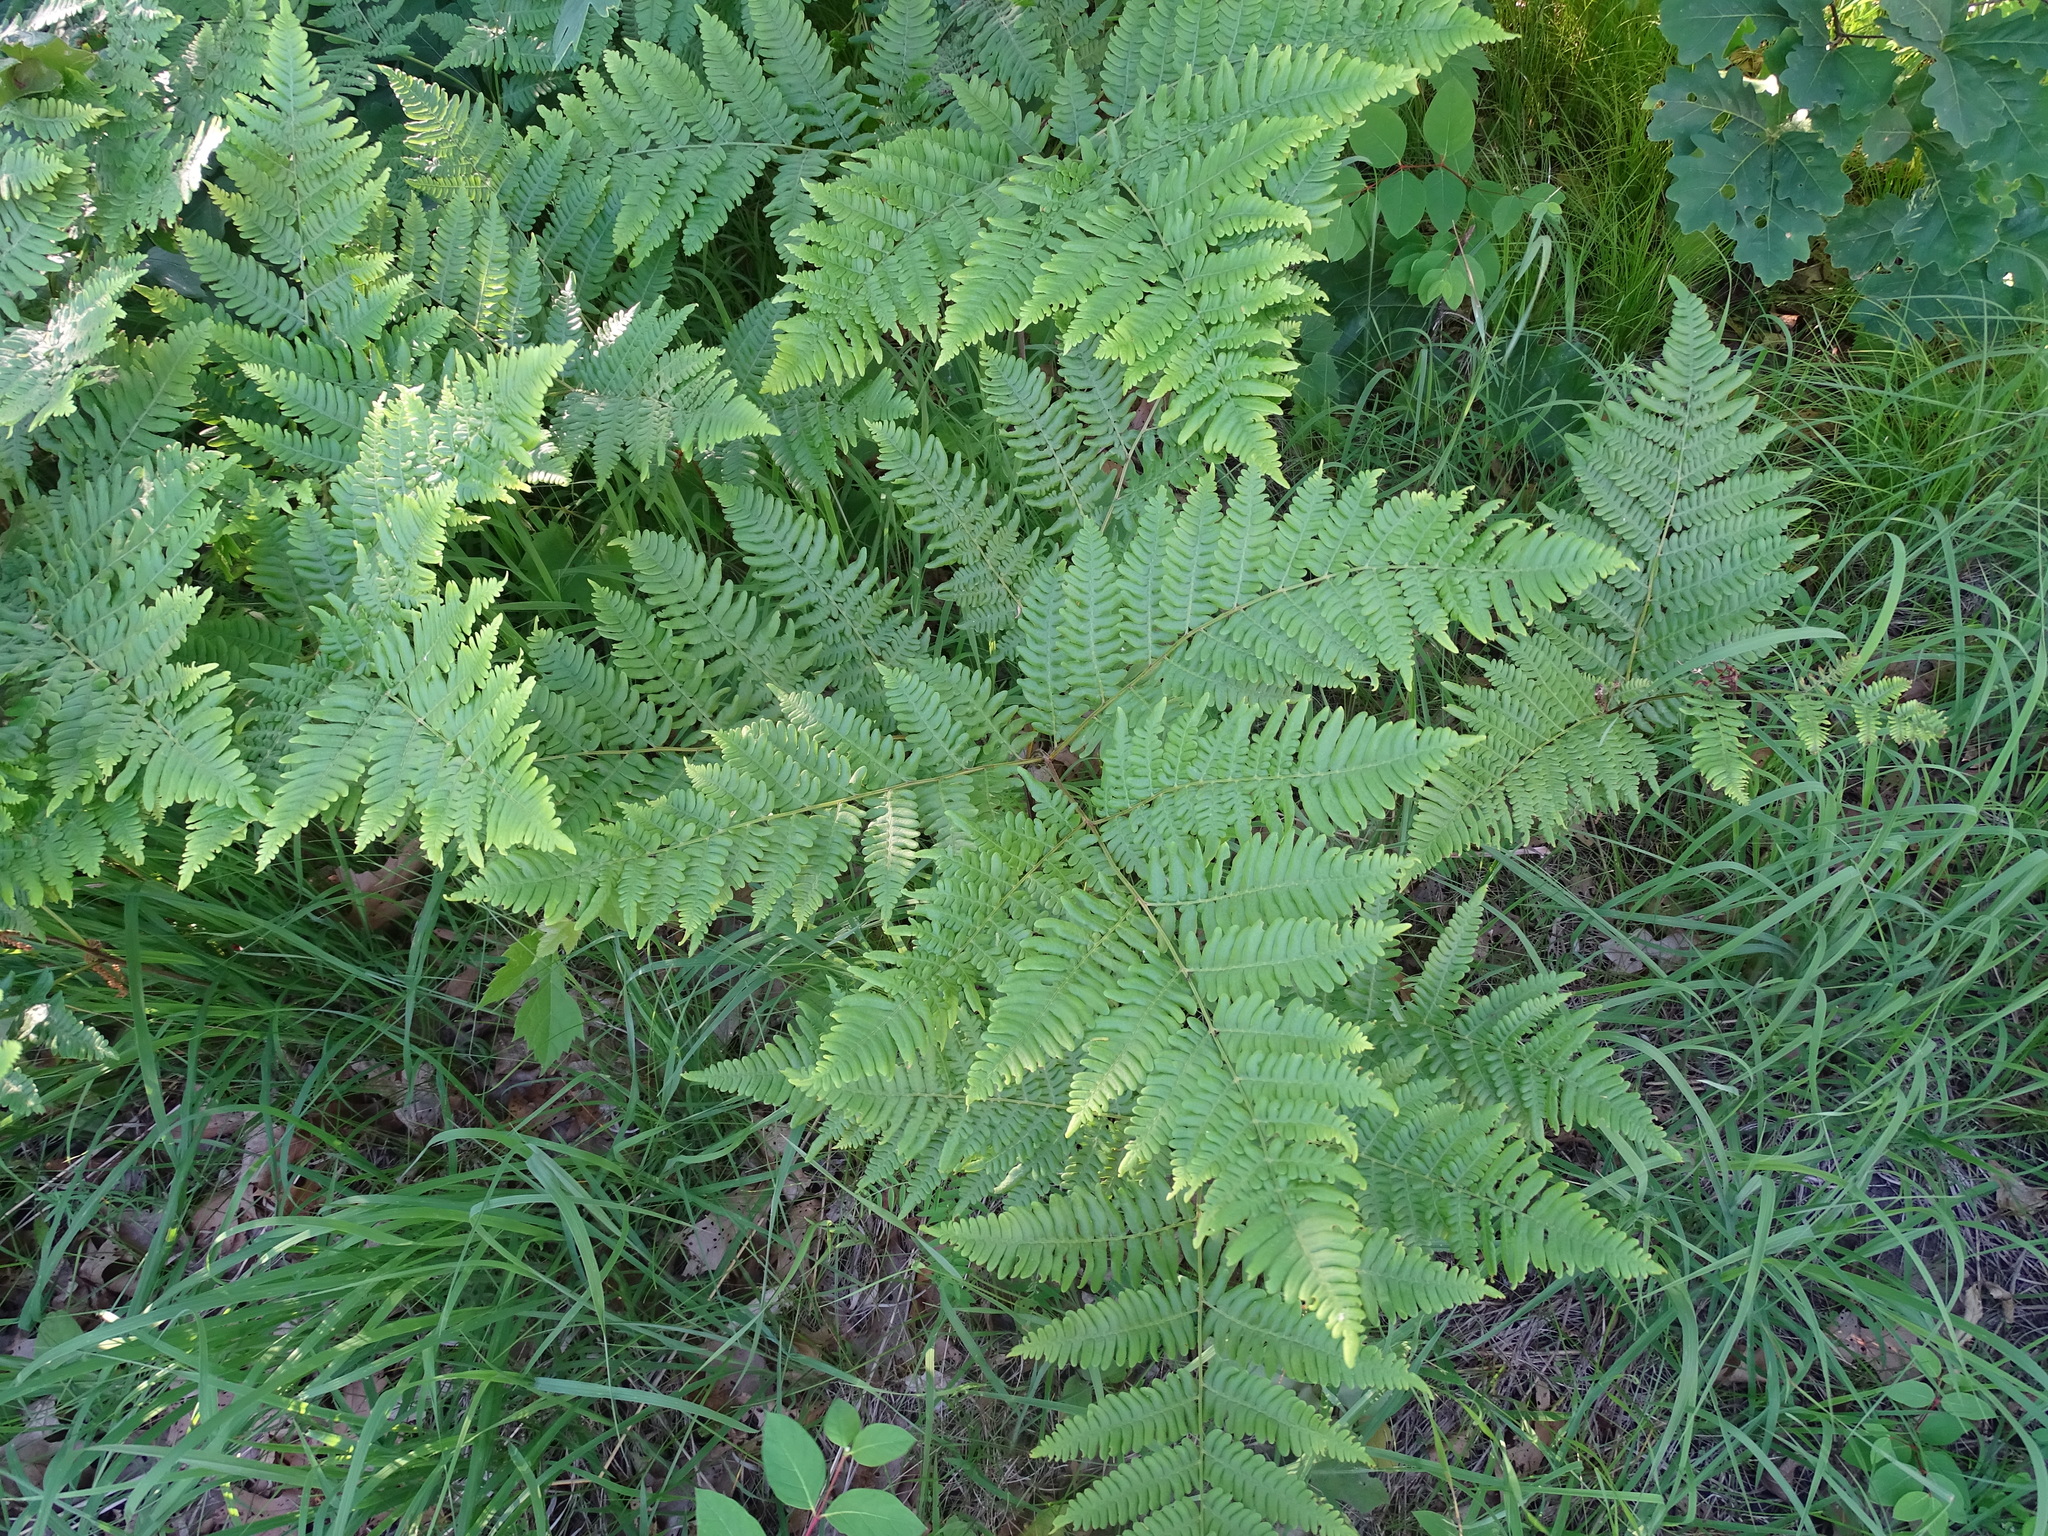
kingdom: Plantae
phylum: Tracheophyta
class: Polypodiopsida
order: Polypodiales
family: Dennstaedtiaceae
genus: Pteridium
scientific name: Pteridium aquilinum
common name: Bracken
